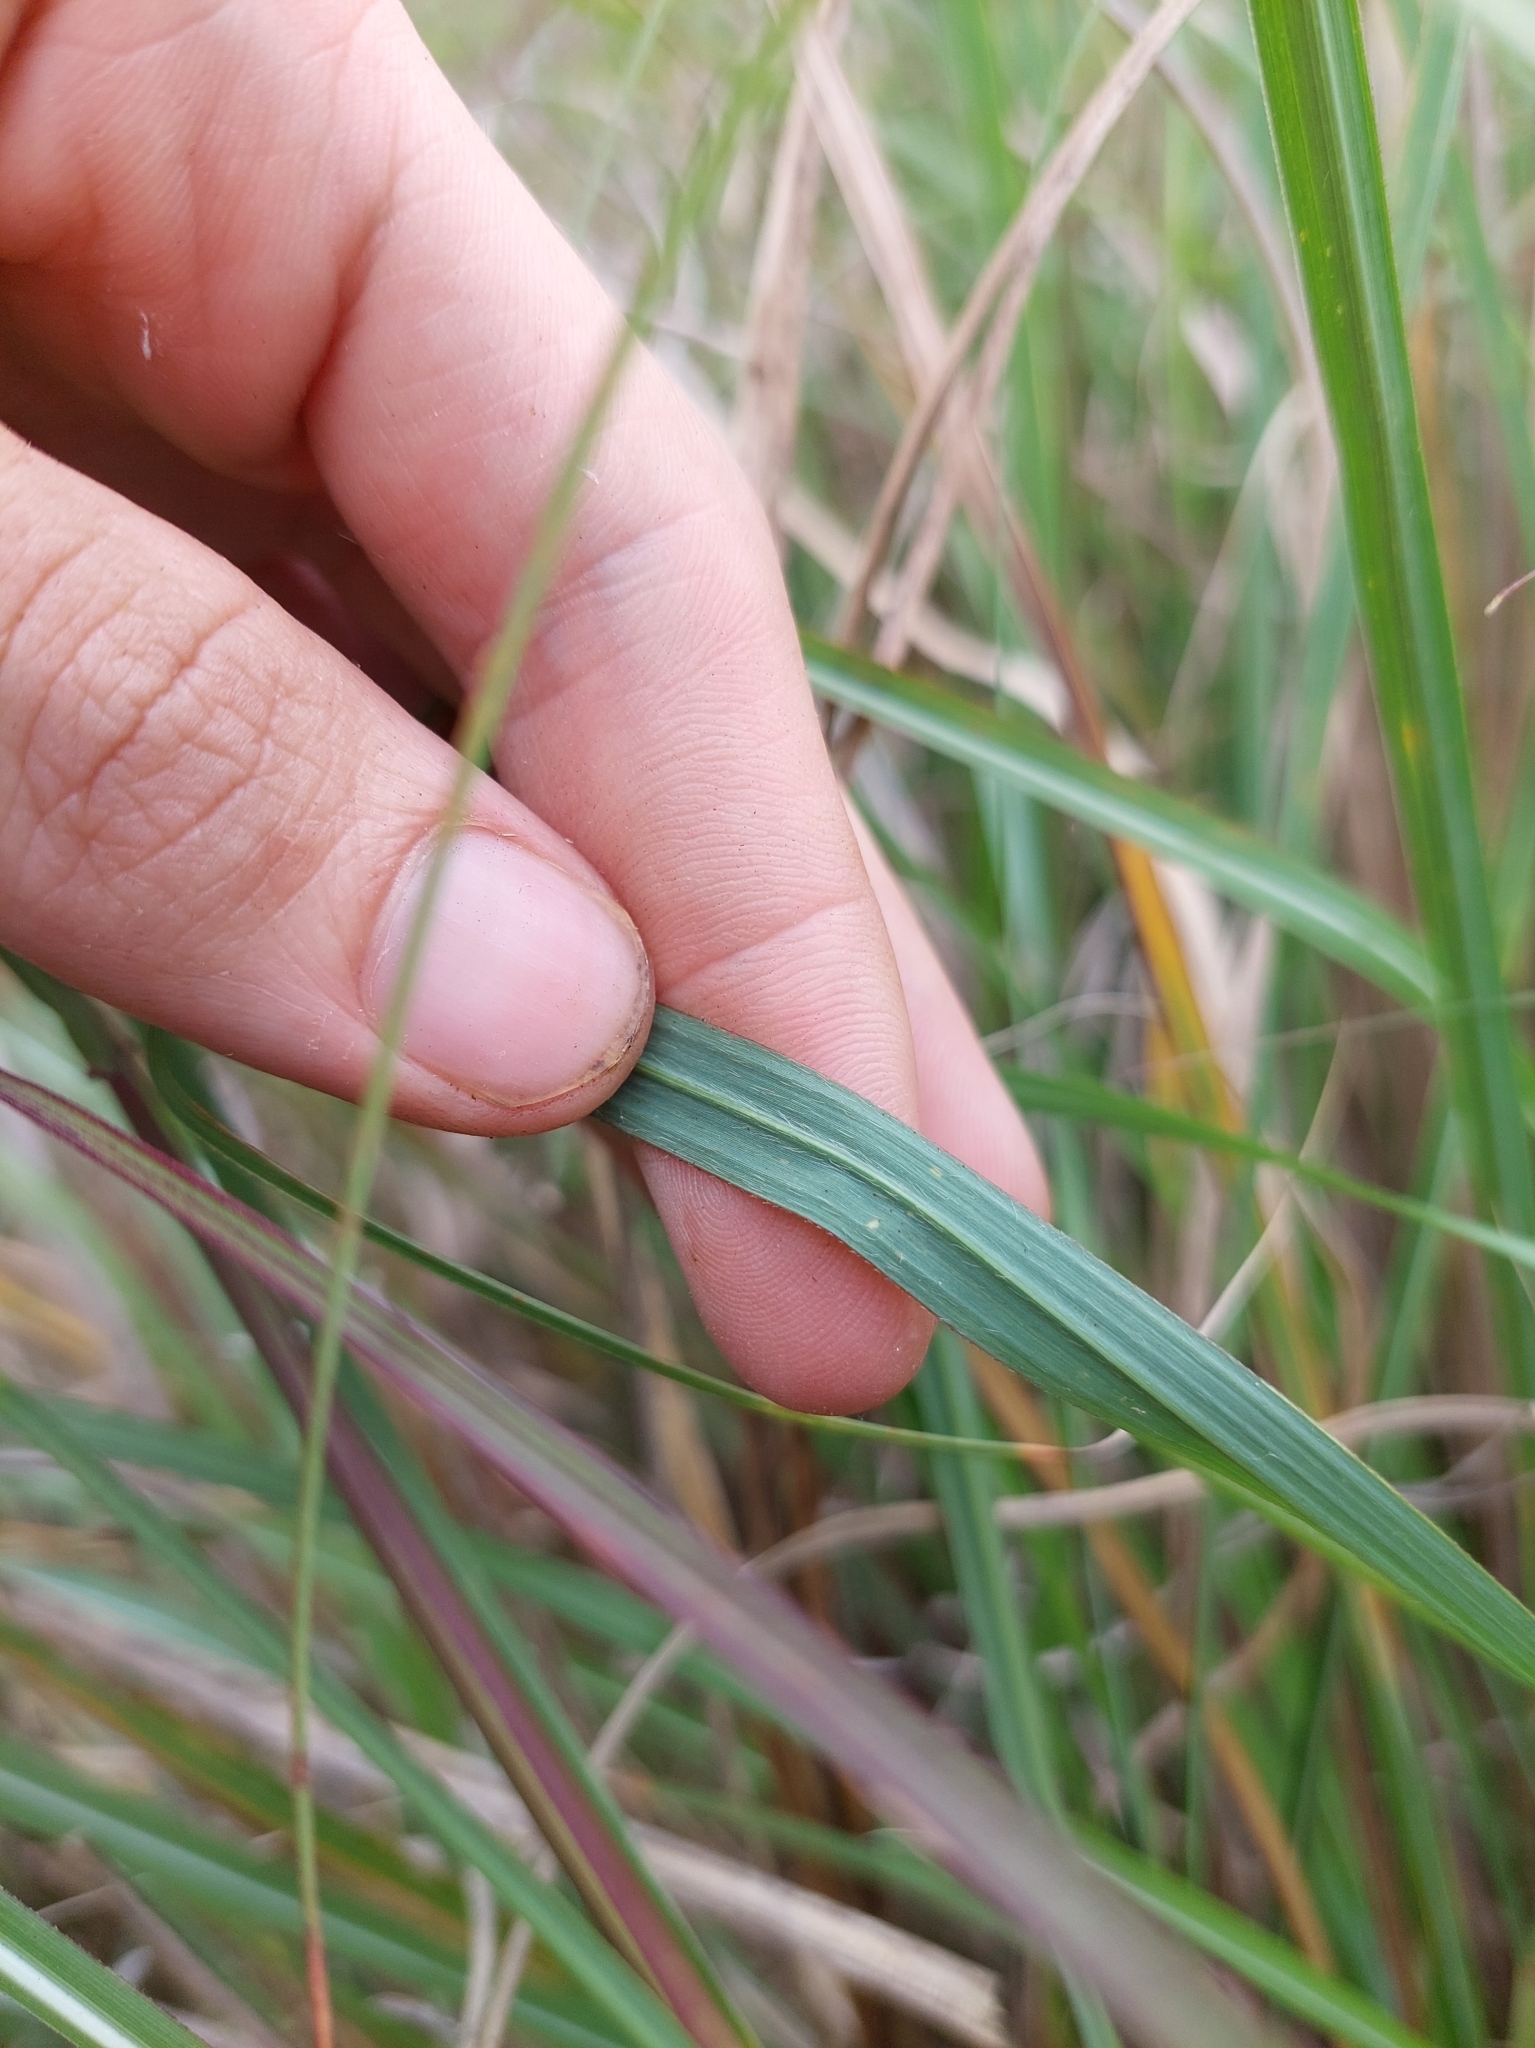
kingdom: Plantae
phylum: Tracheophyta
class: Liliopsida
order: Poales
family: Poaceae
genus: Saccharum
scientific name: Saccharum spontaneum
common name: Wild sugarcane
